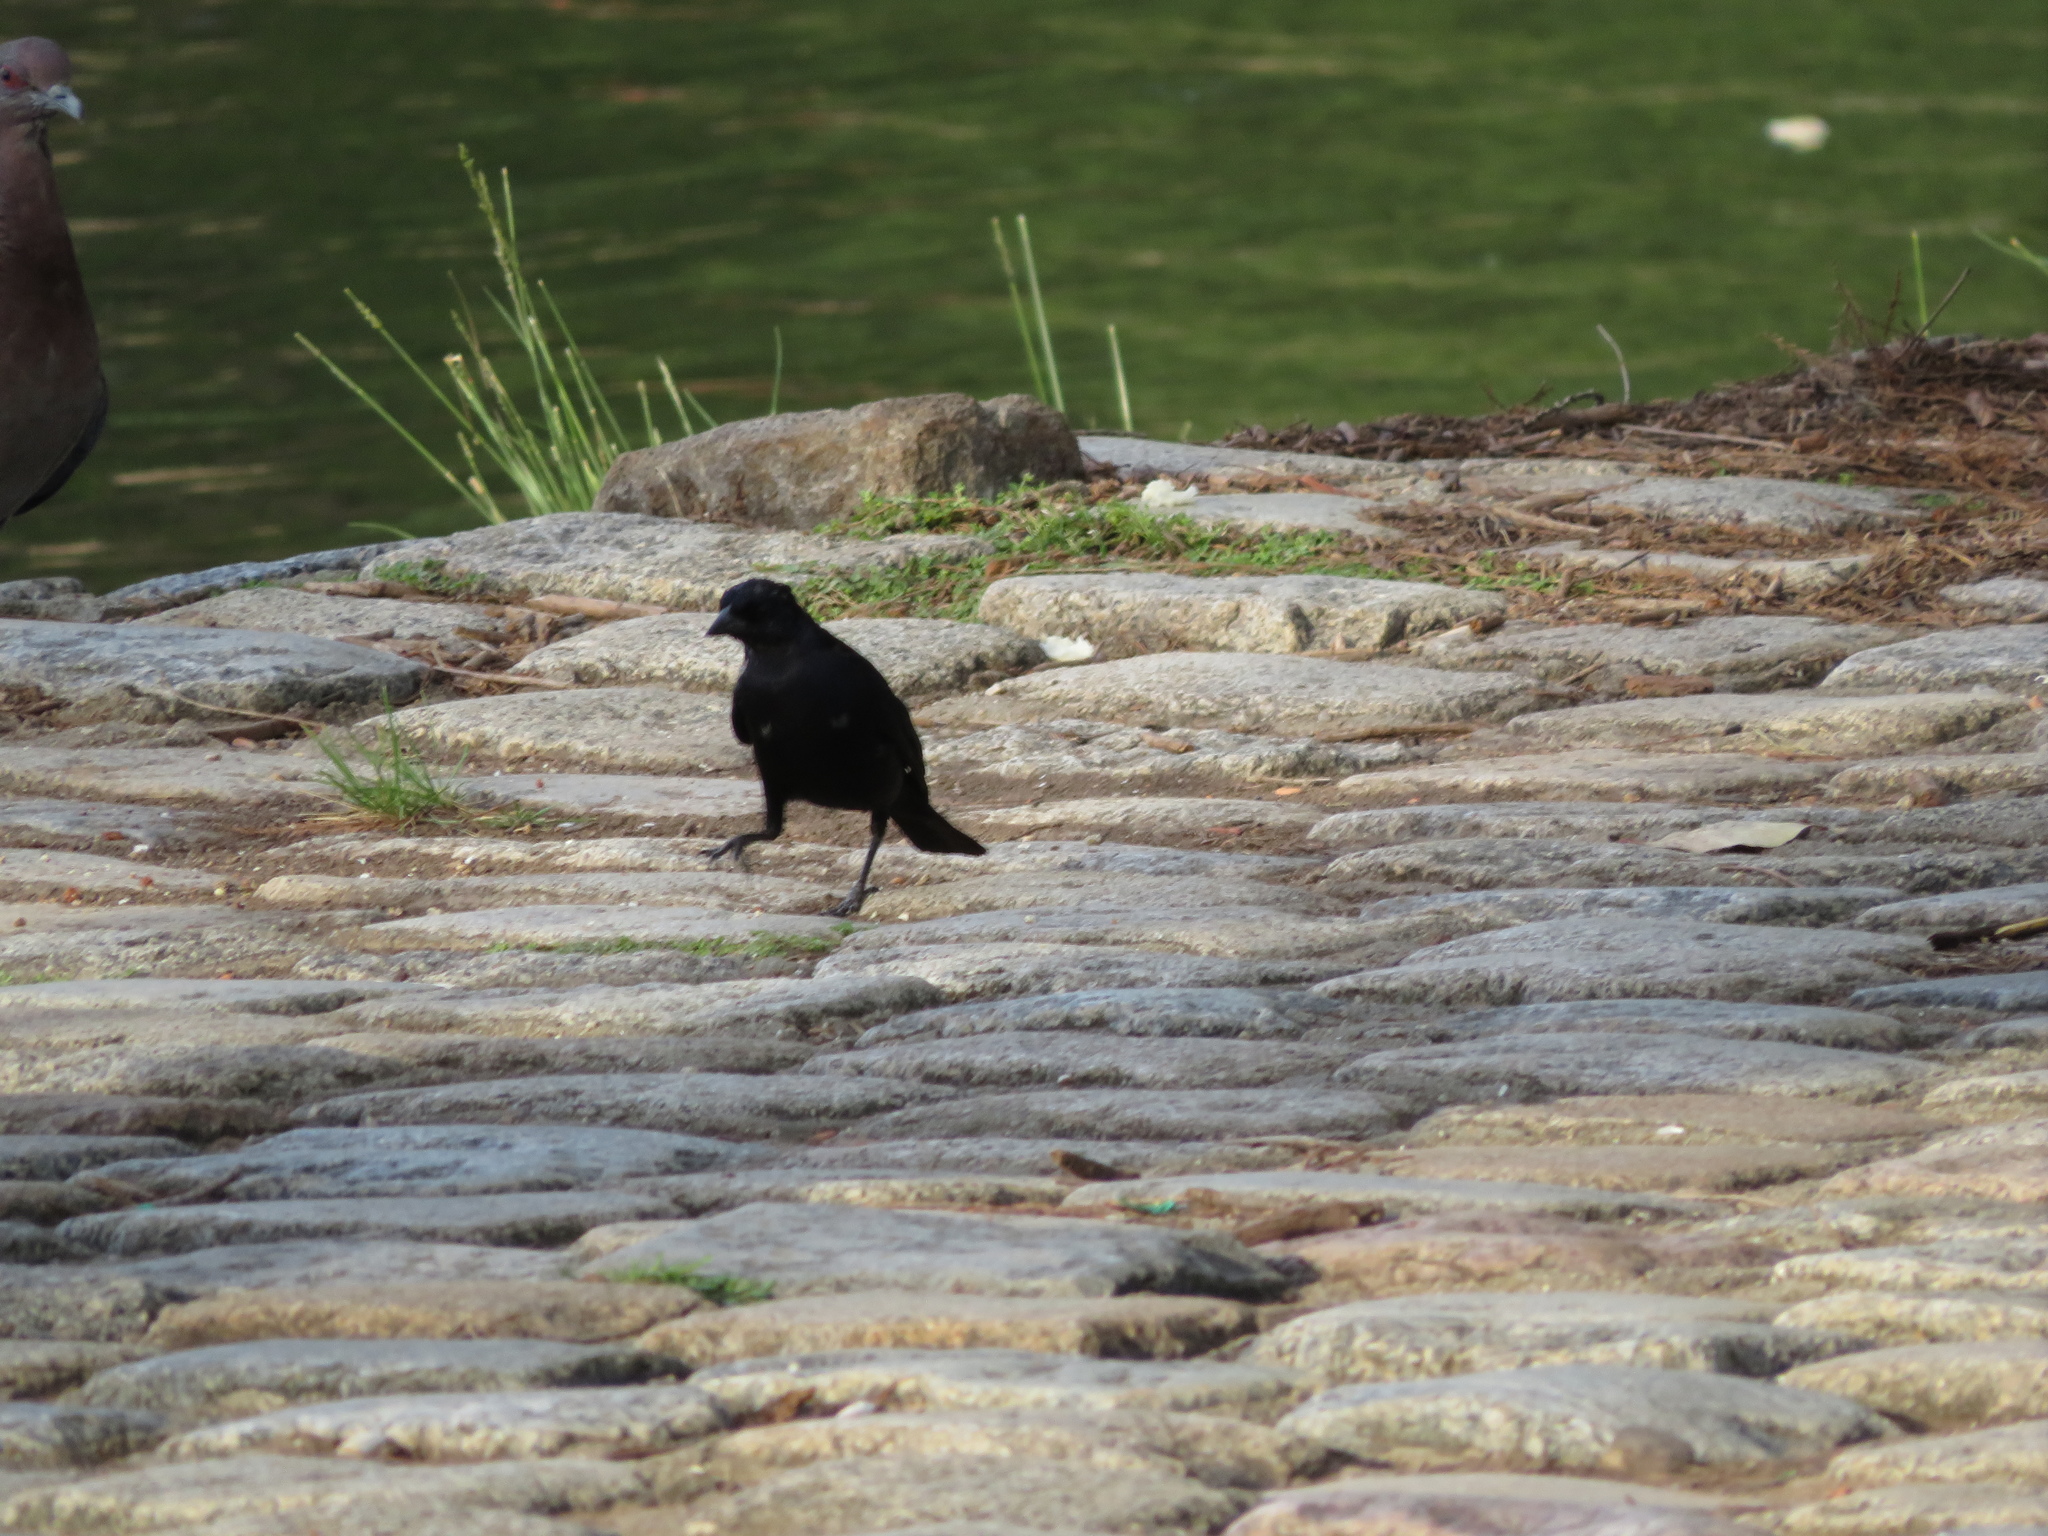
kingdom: Animalia
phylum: Chordata
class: Aves
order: Passeriformes
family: Icteridae
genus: Molothrus
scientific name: Molothrus bonariensis
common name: Shiny cowbird
